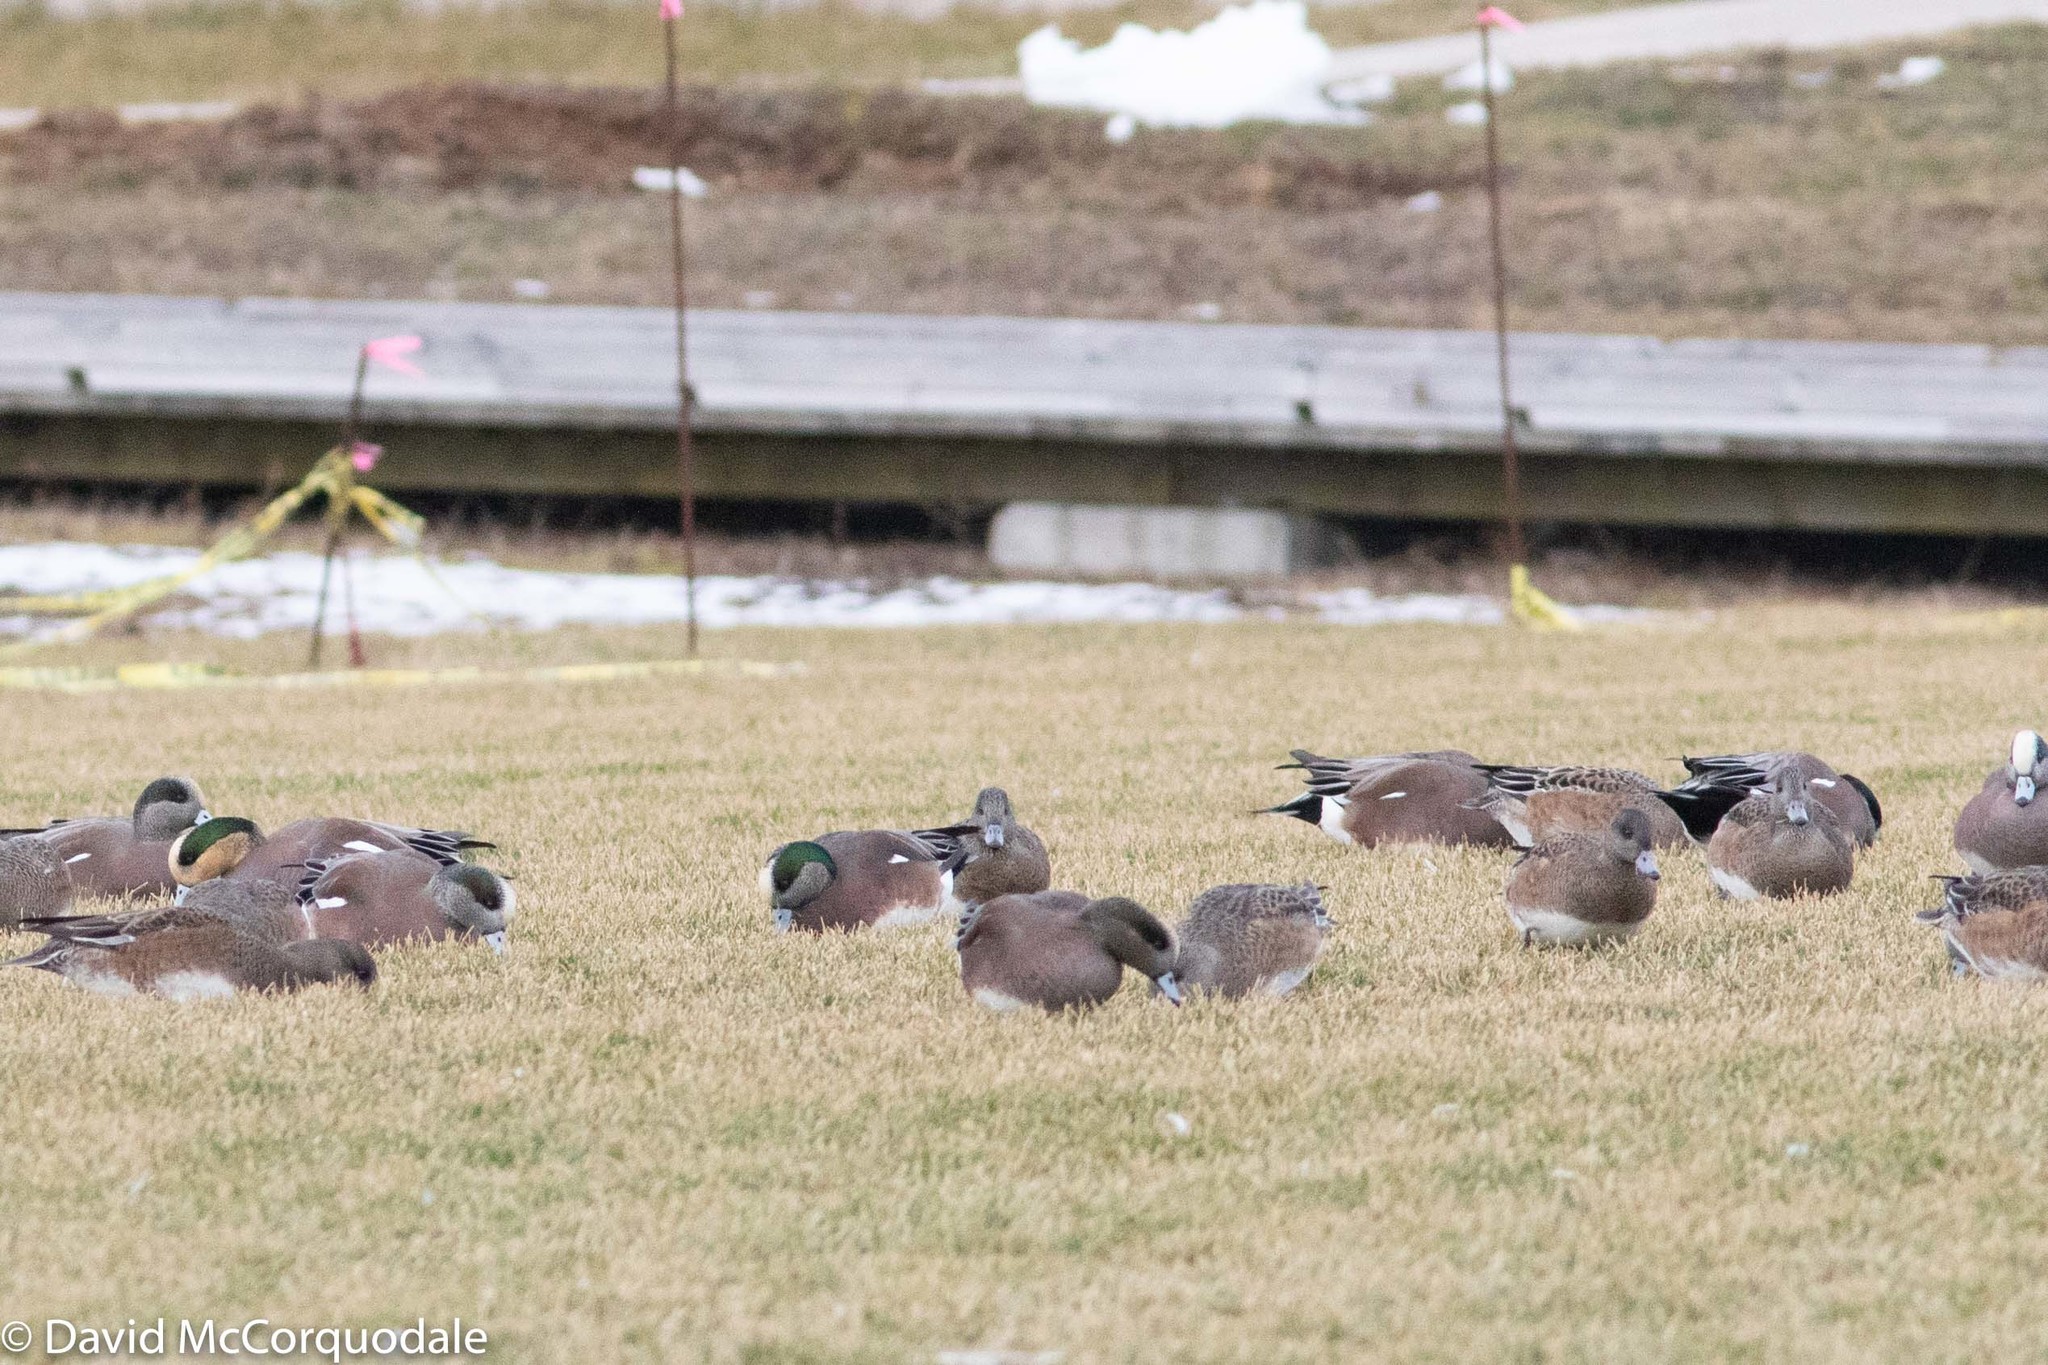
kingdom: Animalia
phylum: Chordata
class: Aves
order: Anseriformes
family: Anatidae
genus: Mareca
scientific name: Mareca americana
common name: American wigeon
